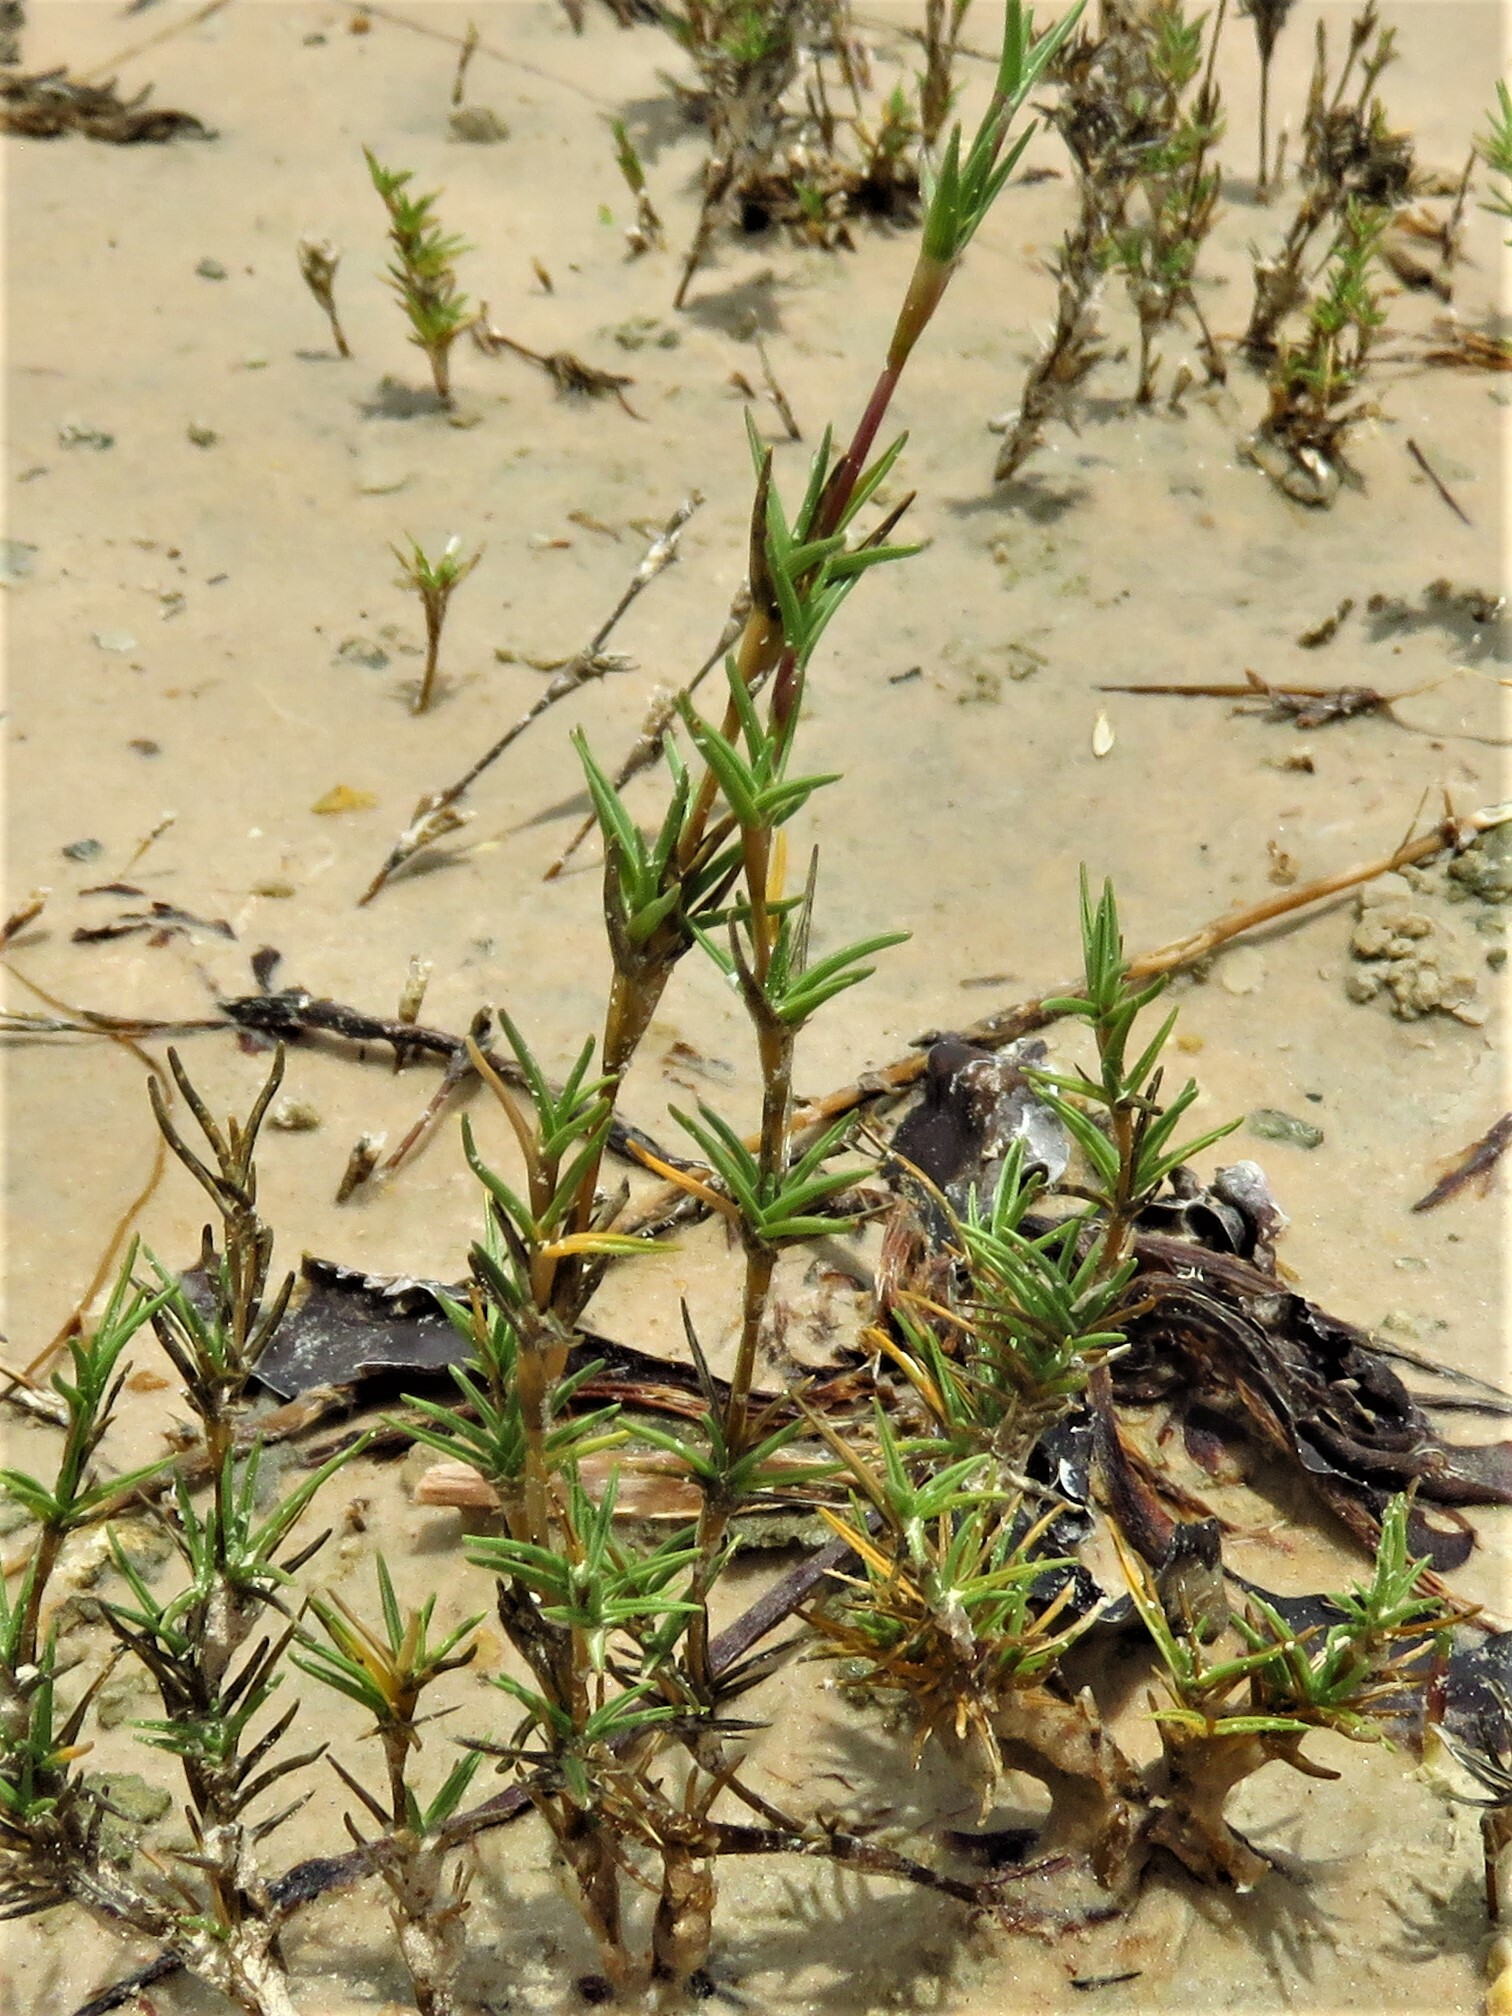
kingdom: Plantae
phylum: Tracheophyta
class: Liliopsida
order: Poales
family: Poaceae
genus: Distichlis
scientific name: Distichlis littoralis
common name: Shore grass
